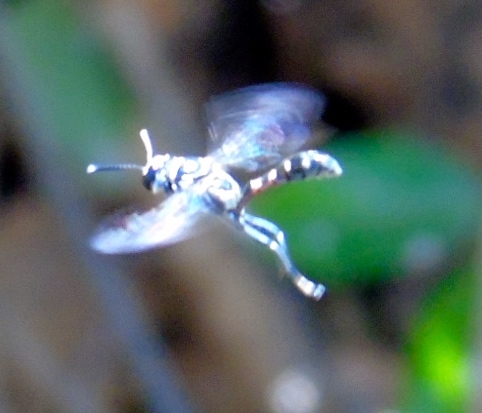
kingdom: Animalia
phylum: Arthropoda
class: Insecta
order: Hymenoptera
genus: Trypargilum
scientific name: Trypargilum
